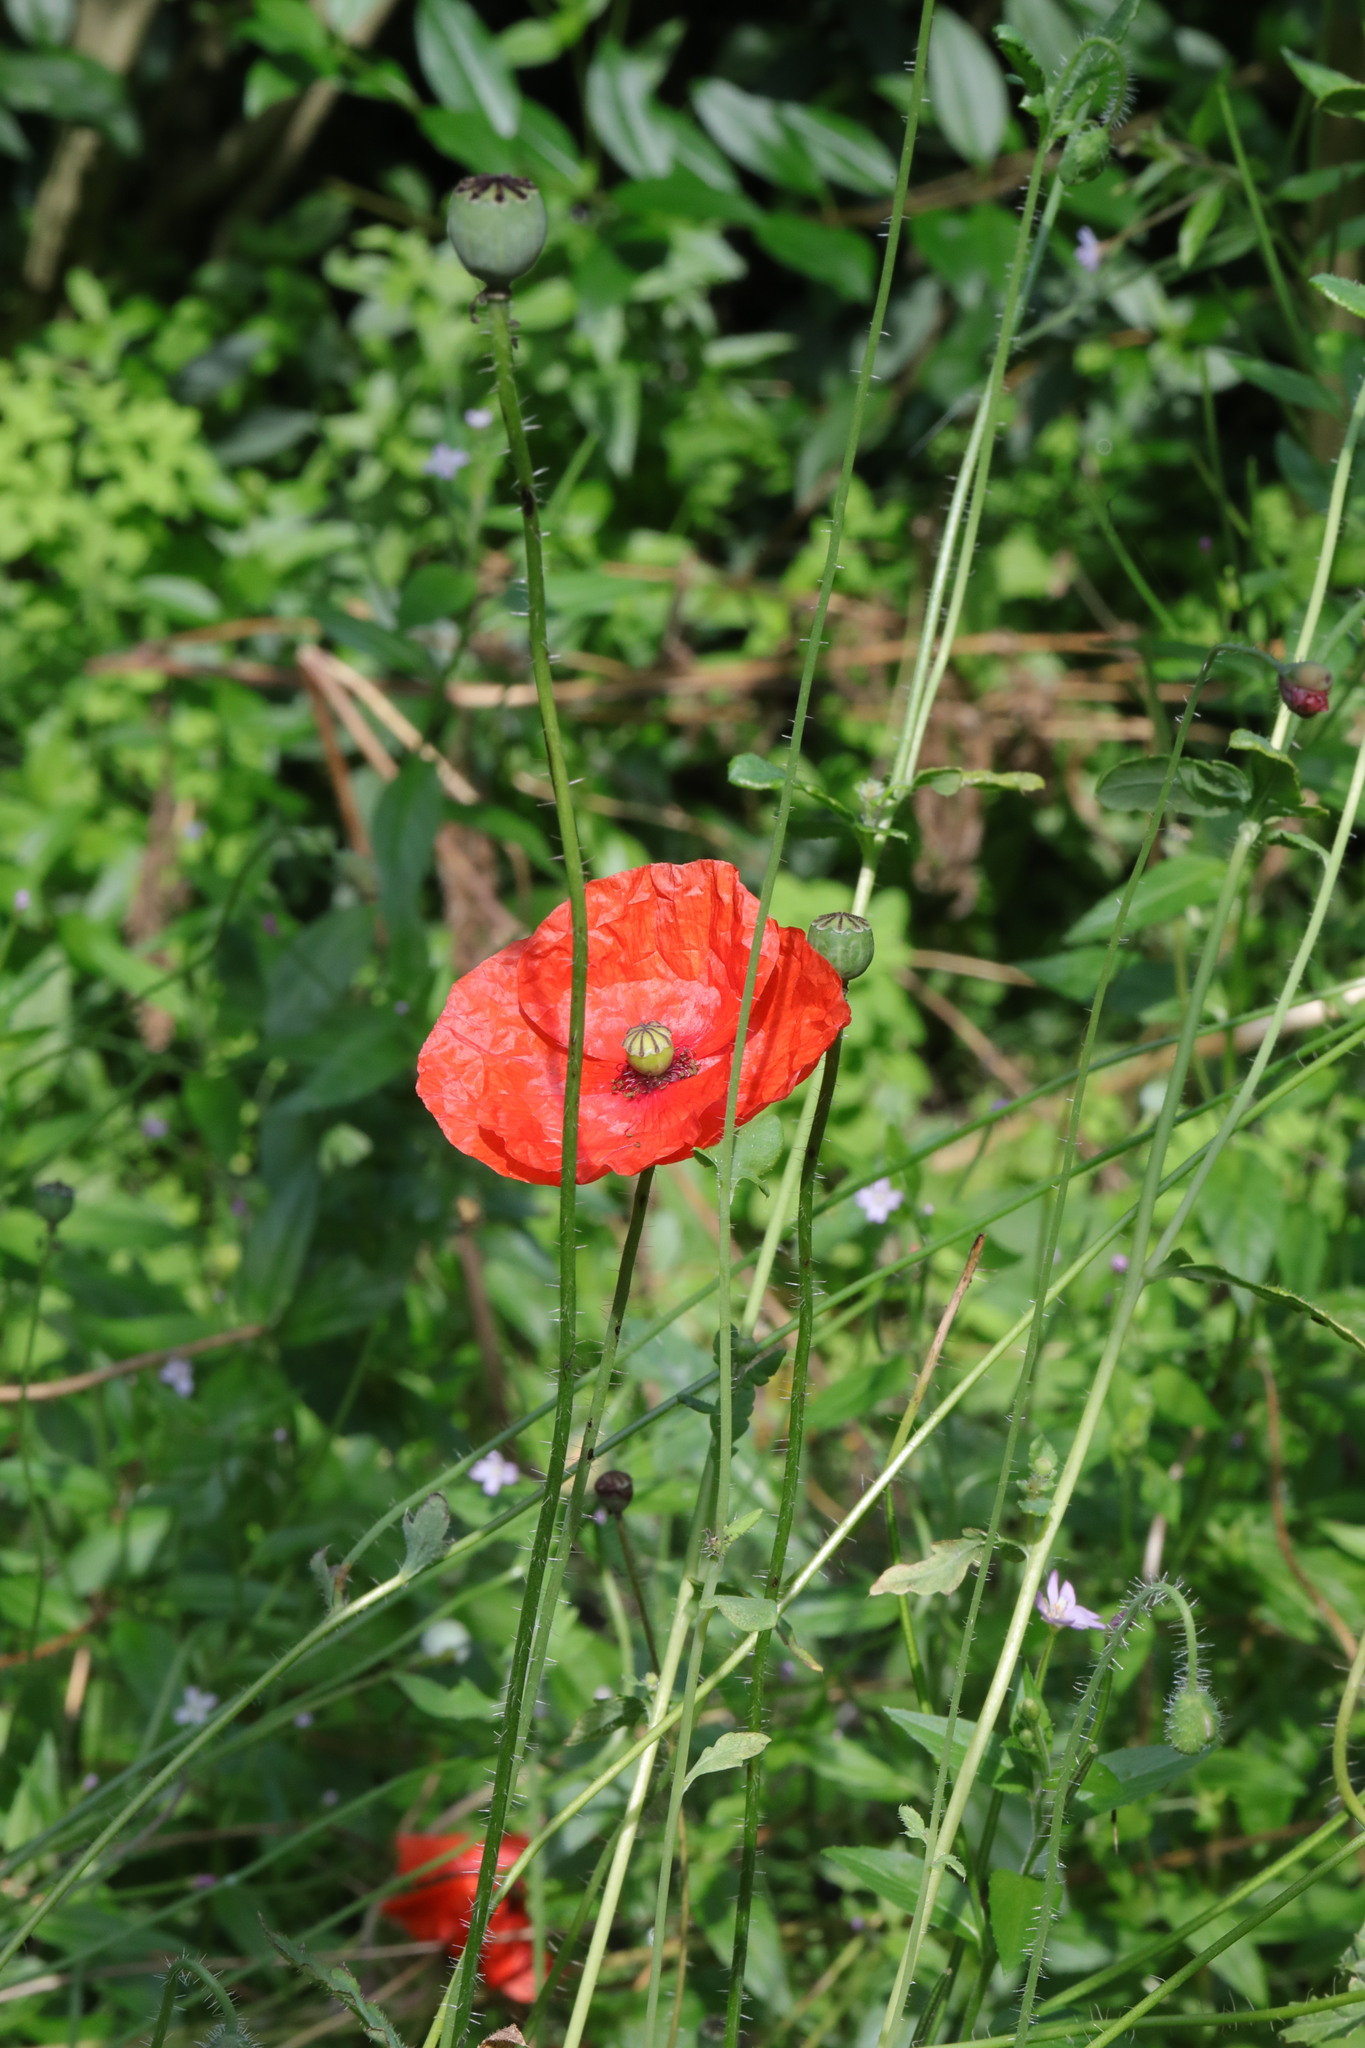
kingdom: Plantae
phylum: Tracheophyta
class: Magnoliopsida
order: Ranunculales
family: Papaveraceae
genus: Papaver
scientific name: Papaver rhoeas
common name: Corn poppy
